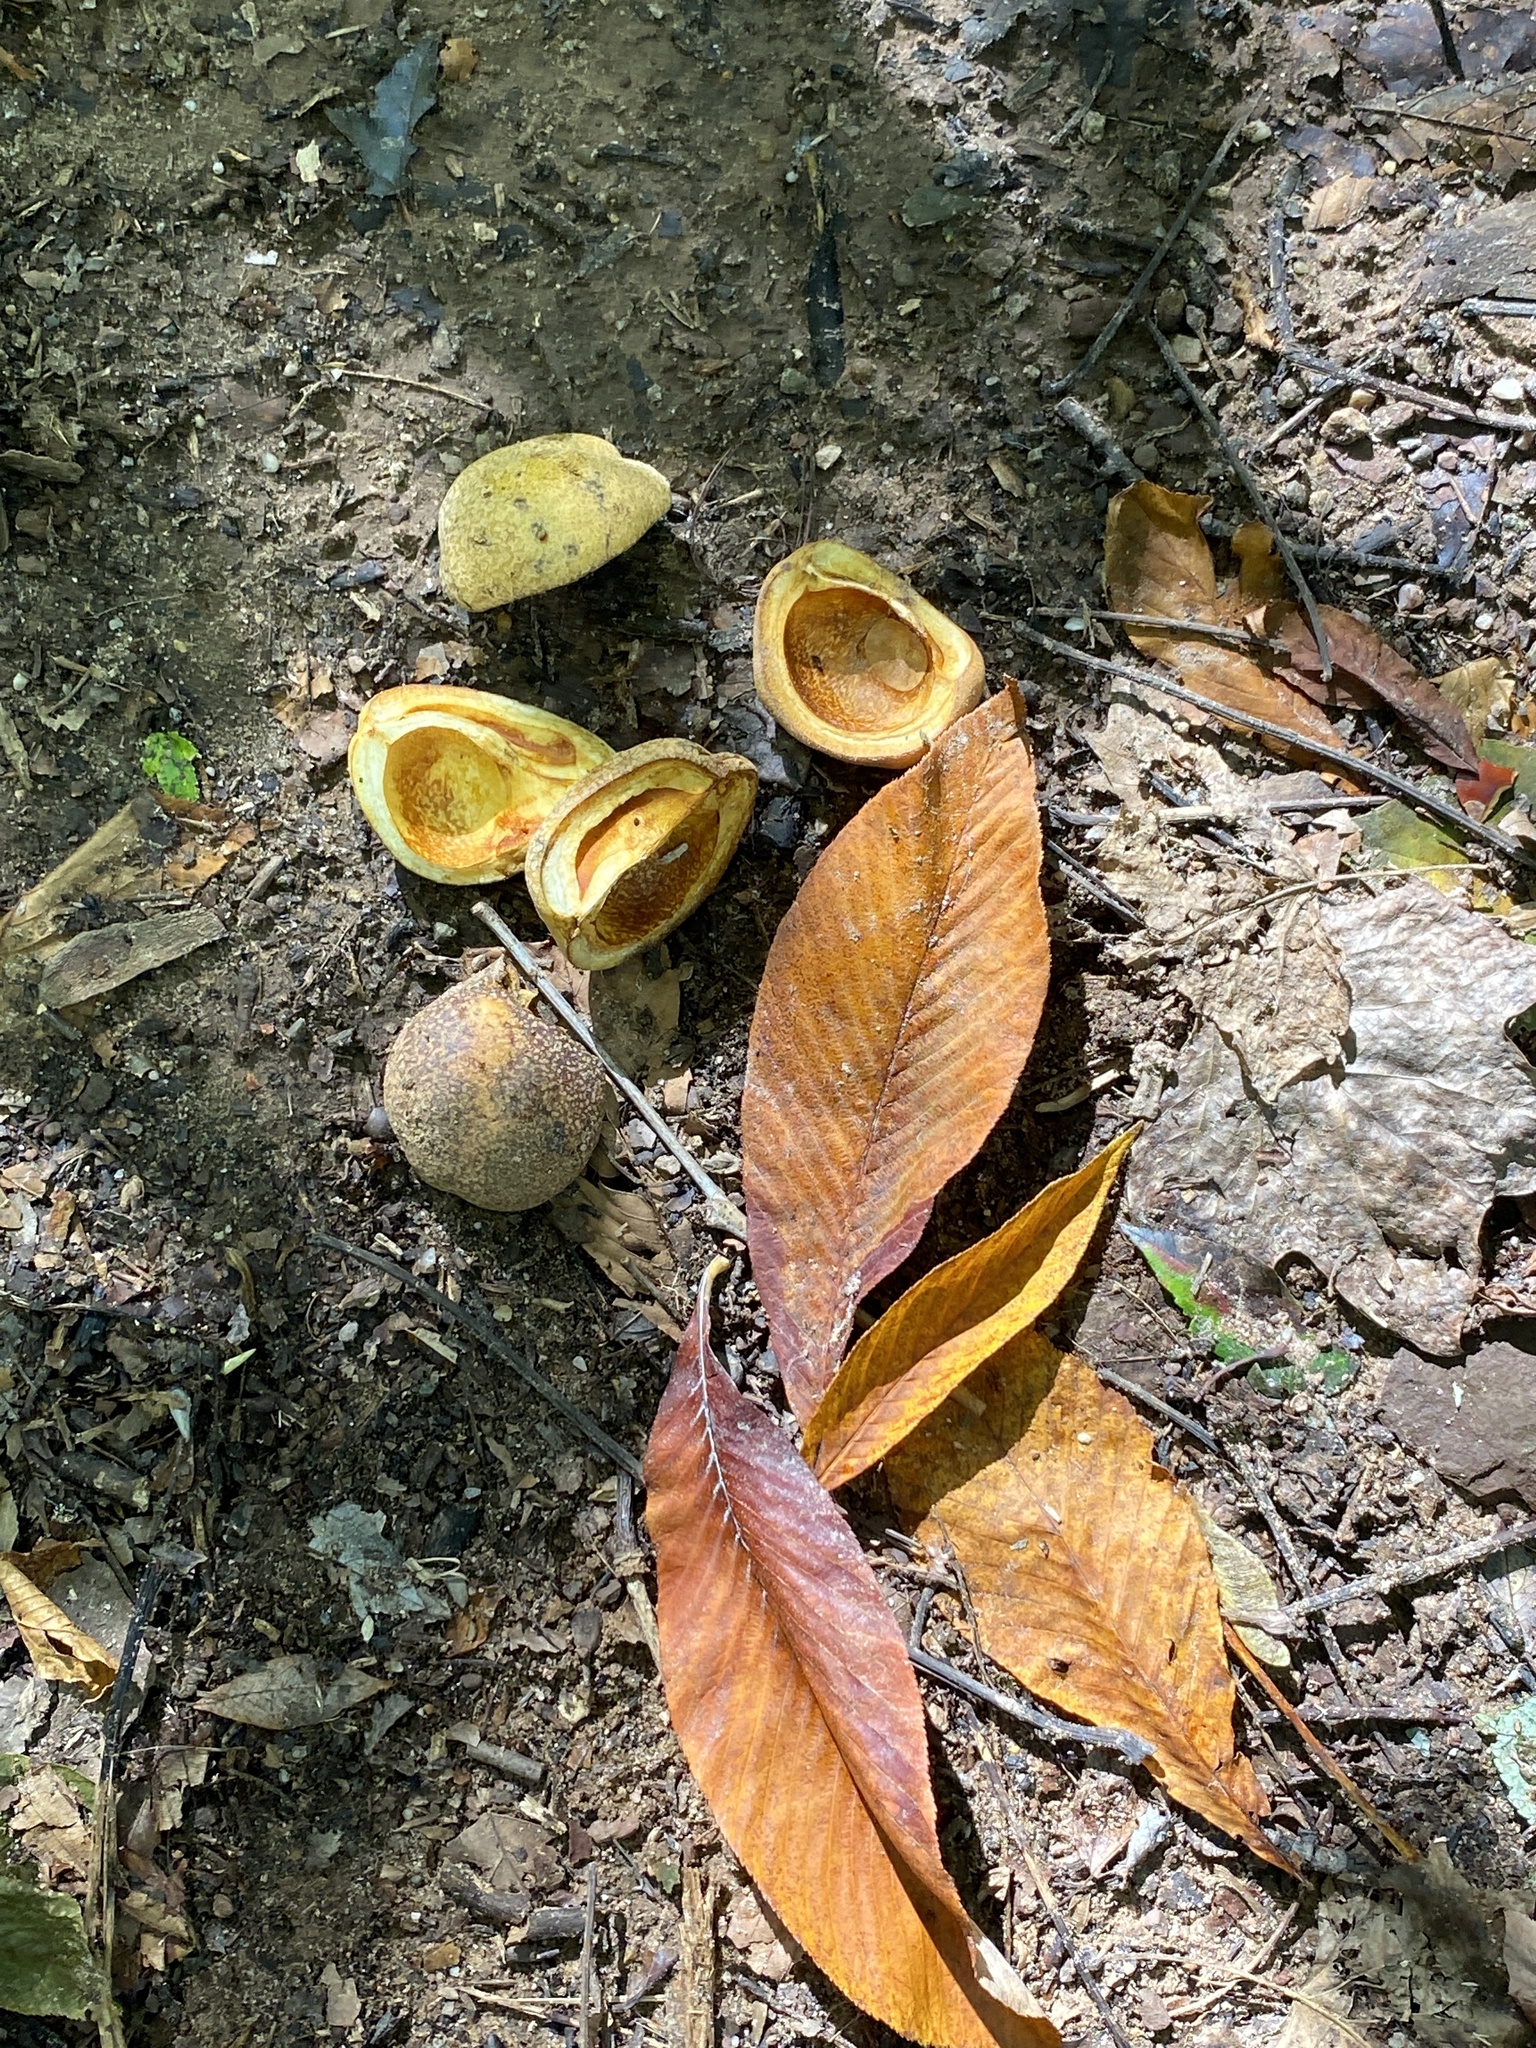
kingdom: Plantae
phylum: Tracheophyta
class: Magnoliopsida
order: Sapindales
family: Sapindaceae
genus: Aesculus
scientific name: Aesculus flava
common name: Yellow buckeye
